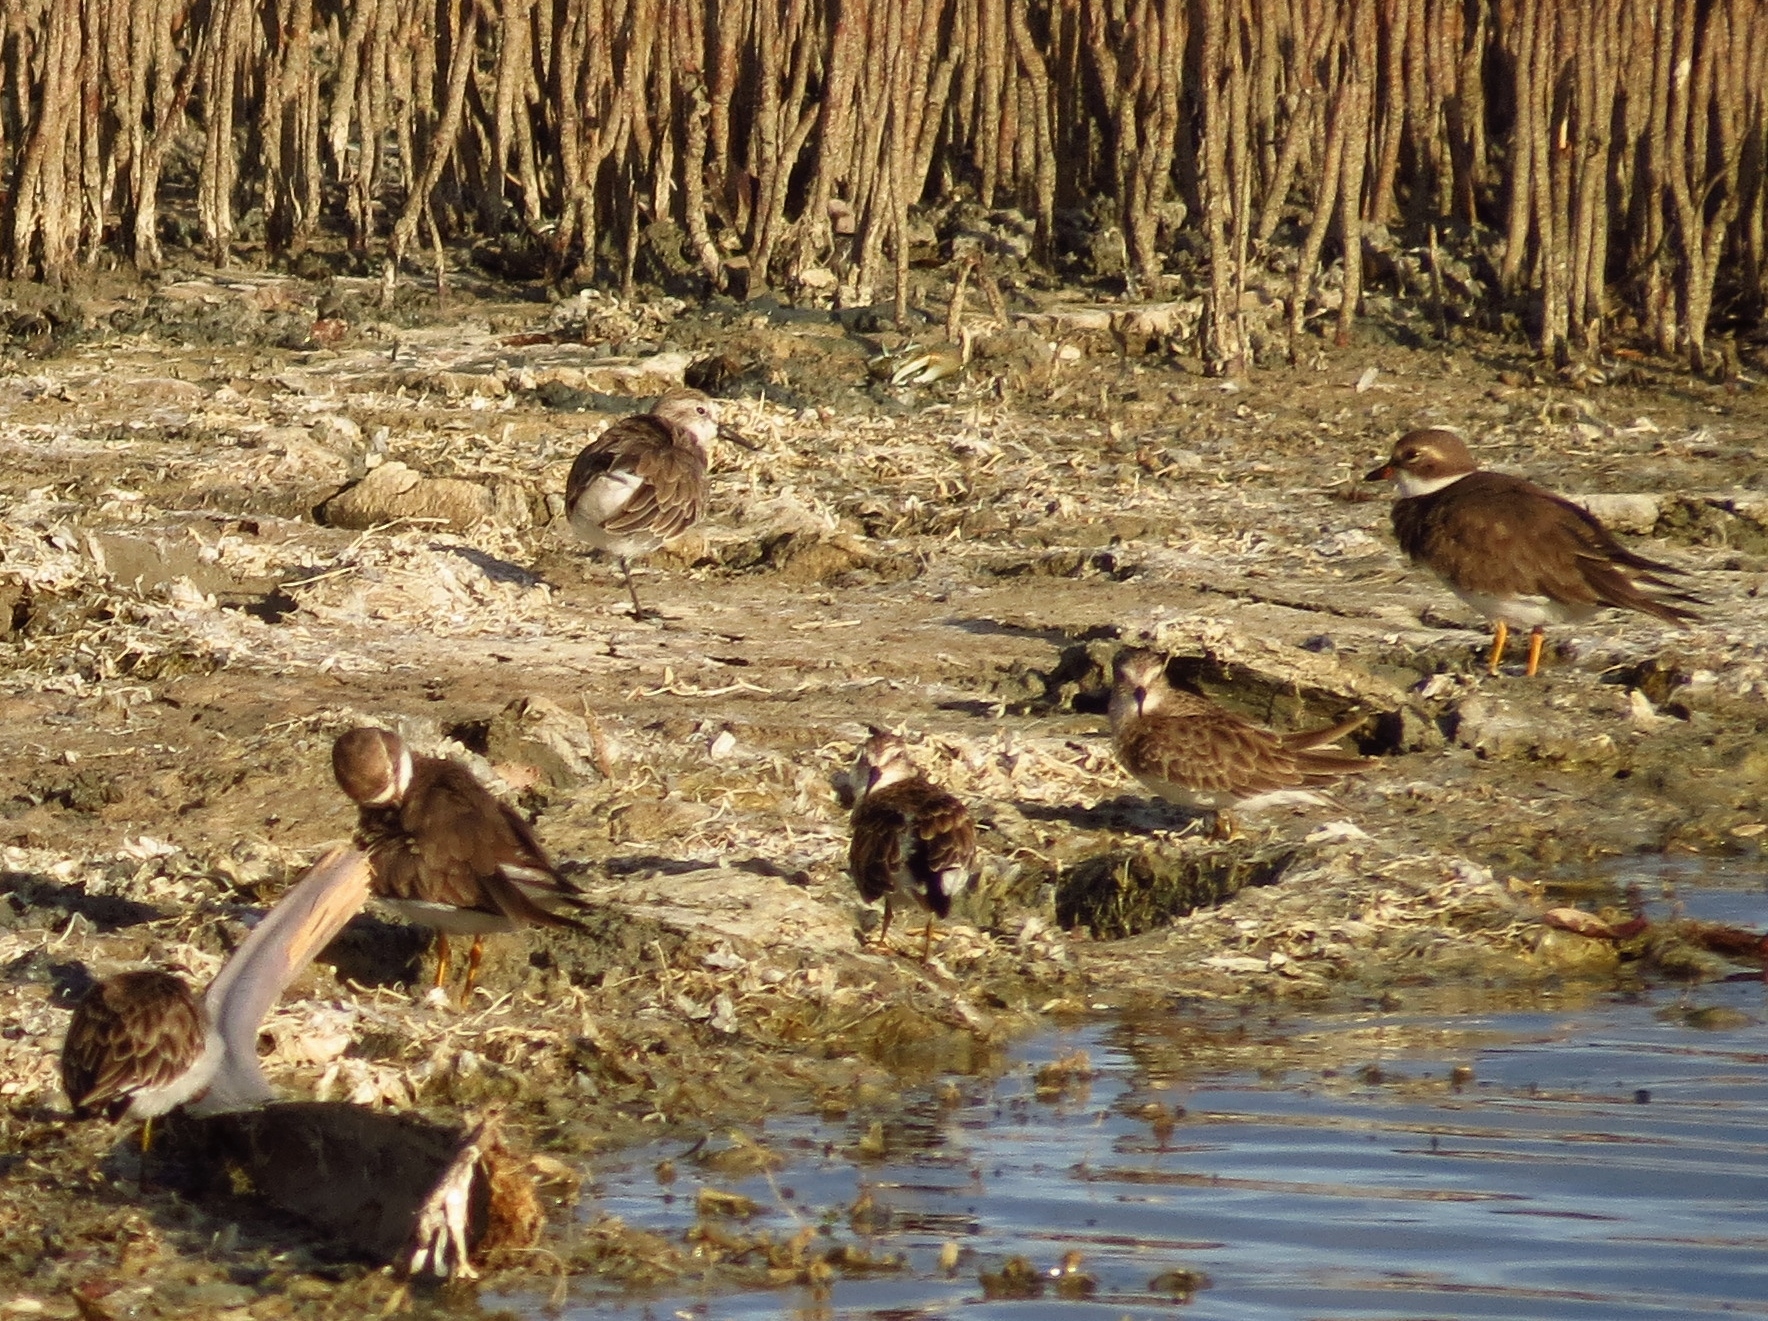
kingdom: Animalia
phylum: Chordata
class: Aves
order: Charadriiformes
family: Charadriidae
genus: Charadrius
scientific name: Charadrius semipalmatus
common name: Semipalmated plover
